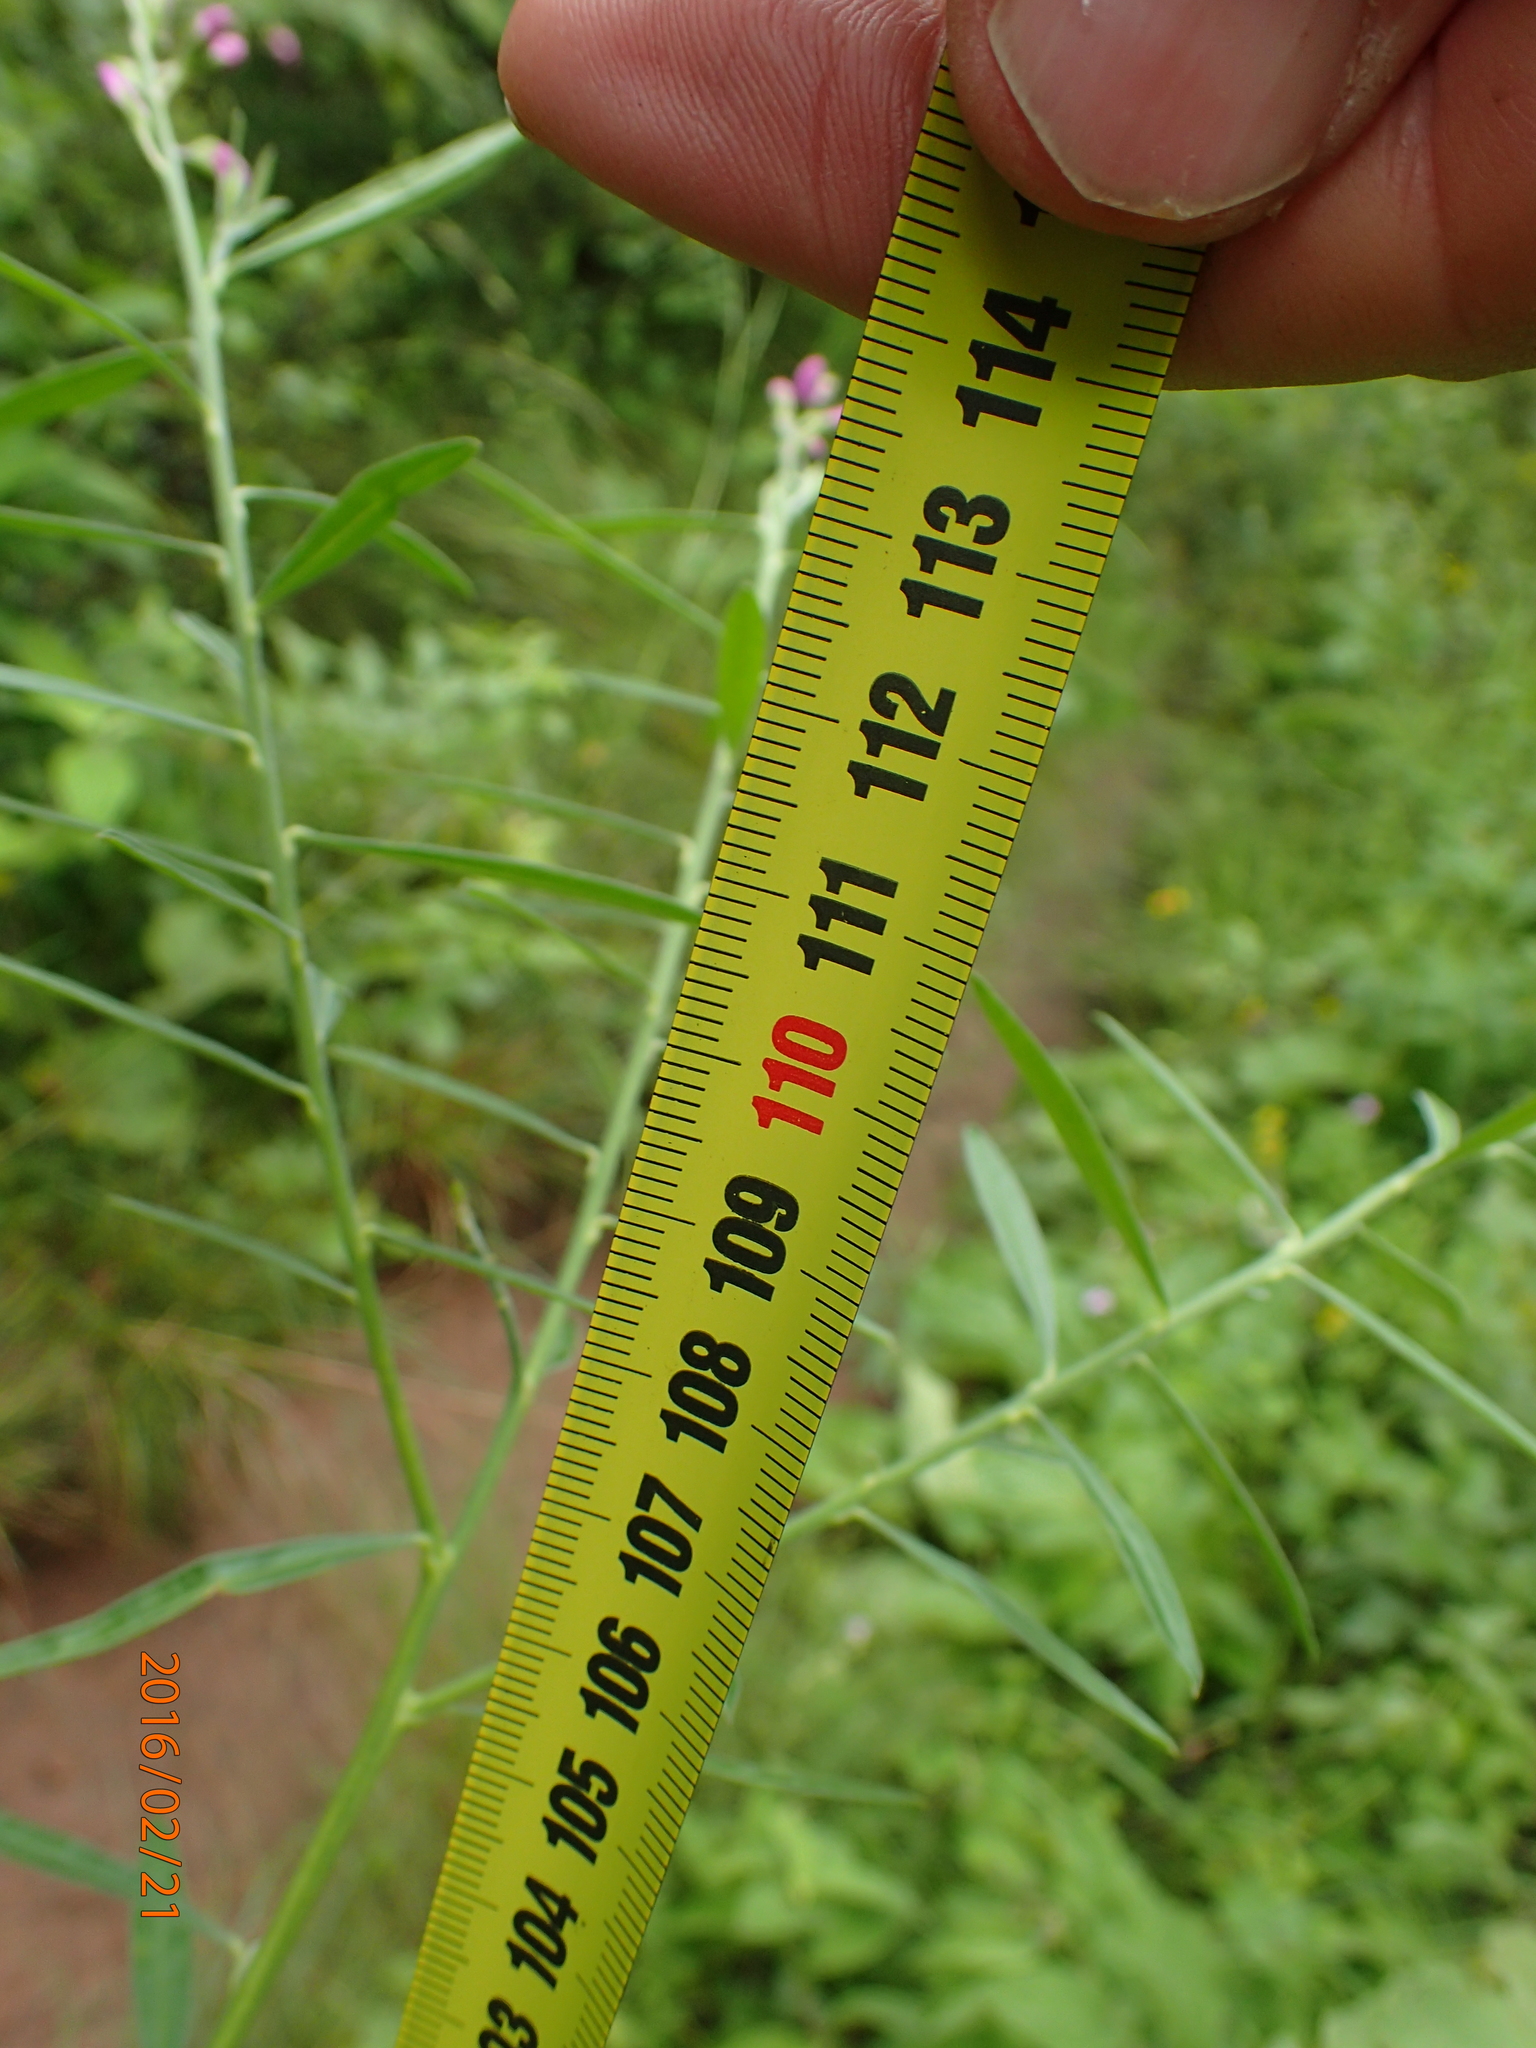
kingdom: Plantae
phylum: Tracheophyta
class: Magnoliopsida
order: Fabales
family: Polygalaceae
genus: Polygala
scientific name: Polygala virgata
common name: Milkwort
